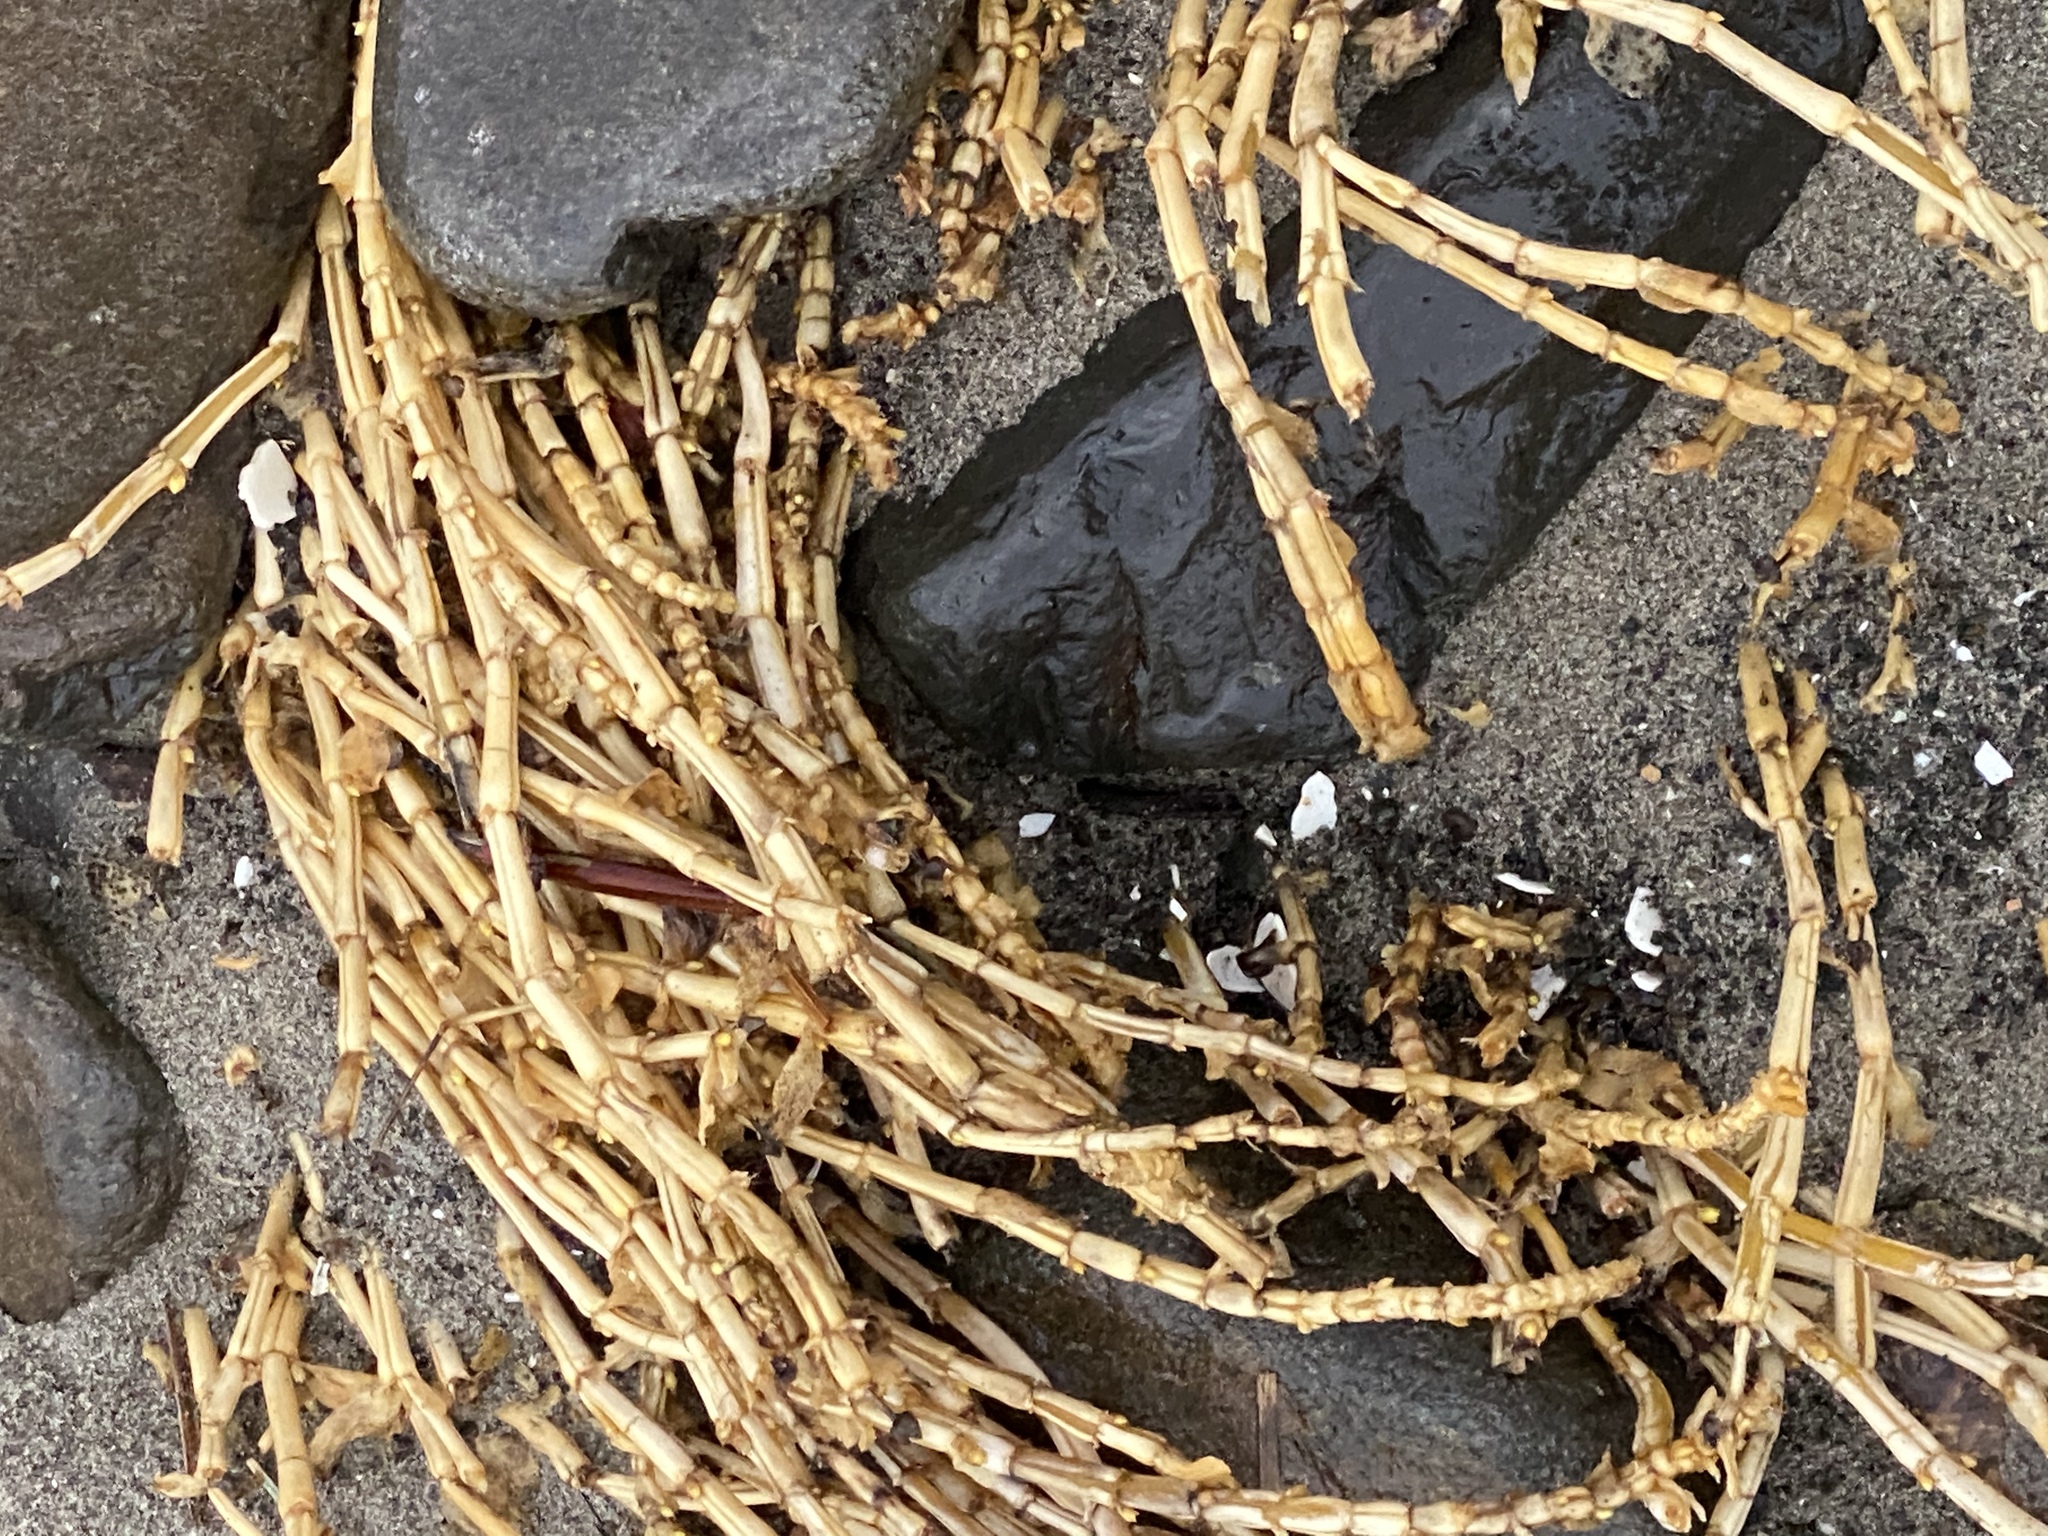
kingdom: Plantae
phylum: Tracheophyta
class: Magnoliopsida
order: Caryophyllales
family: Caryophyllaceae
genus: Honckenya
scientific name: Honckenya peploides
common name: Sea sandwort
